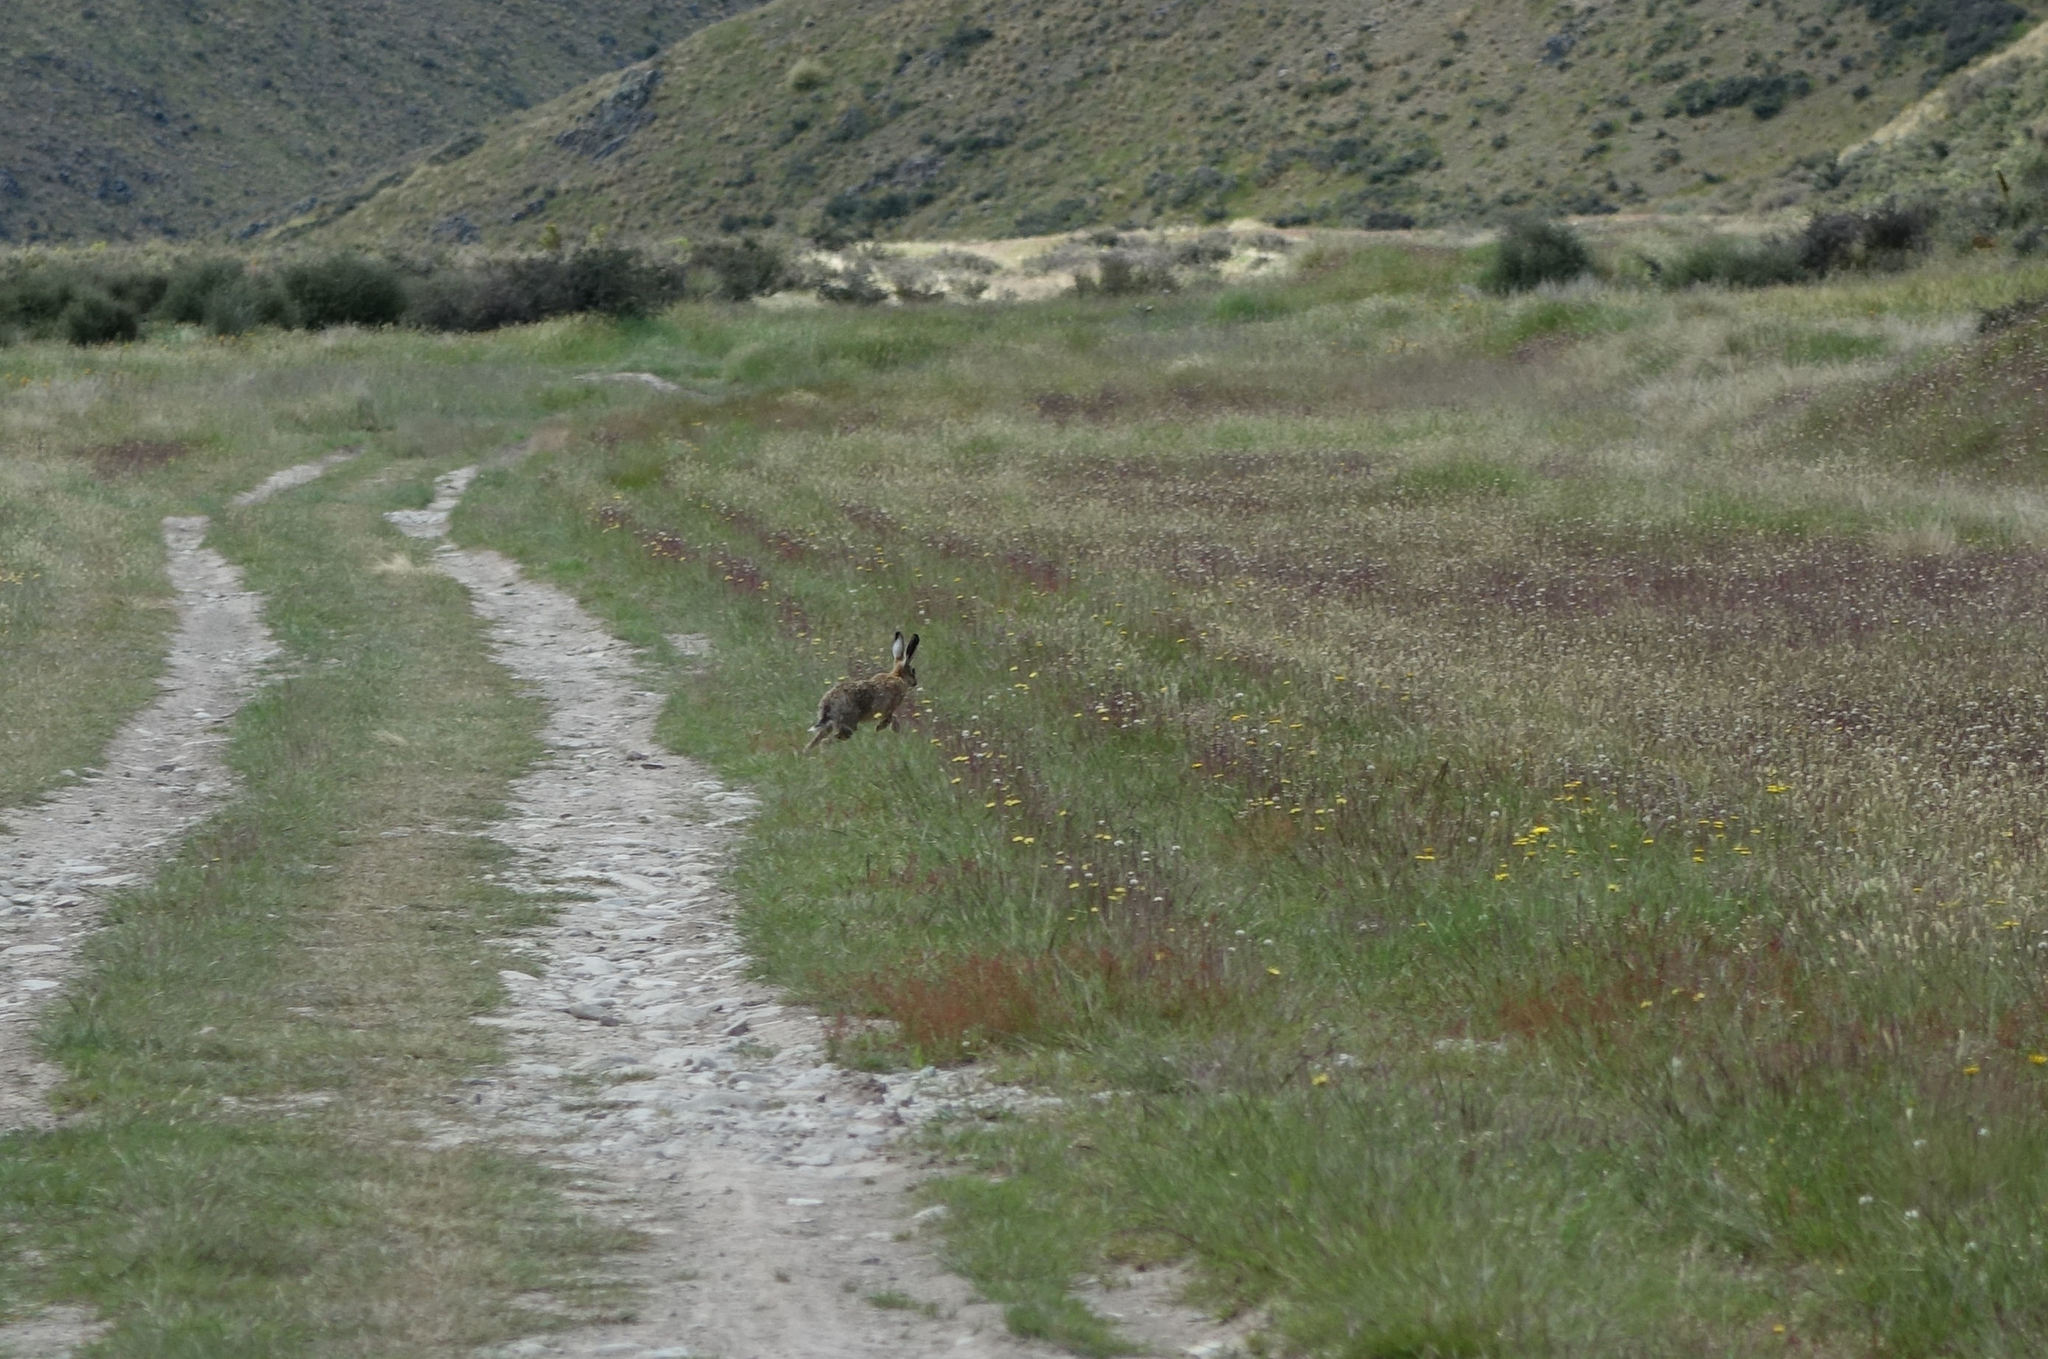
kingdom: Animalia
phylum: Chordata
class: Mammalia
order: Lagomorpha
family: Leporidae
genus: Lepus
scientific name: Lepus europaeus
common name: European hare
